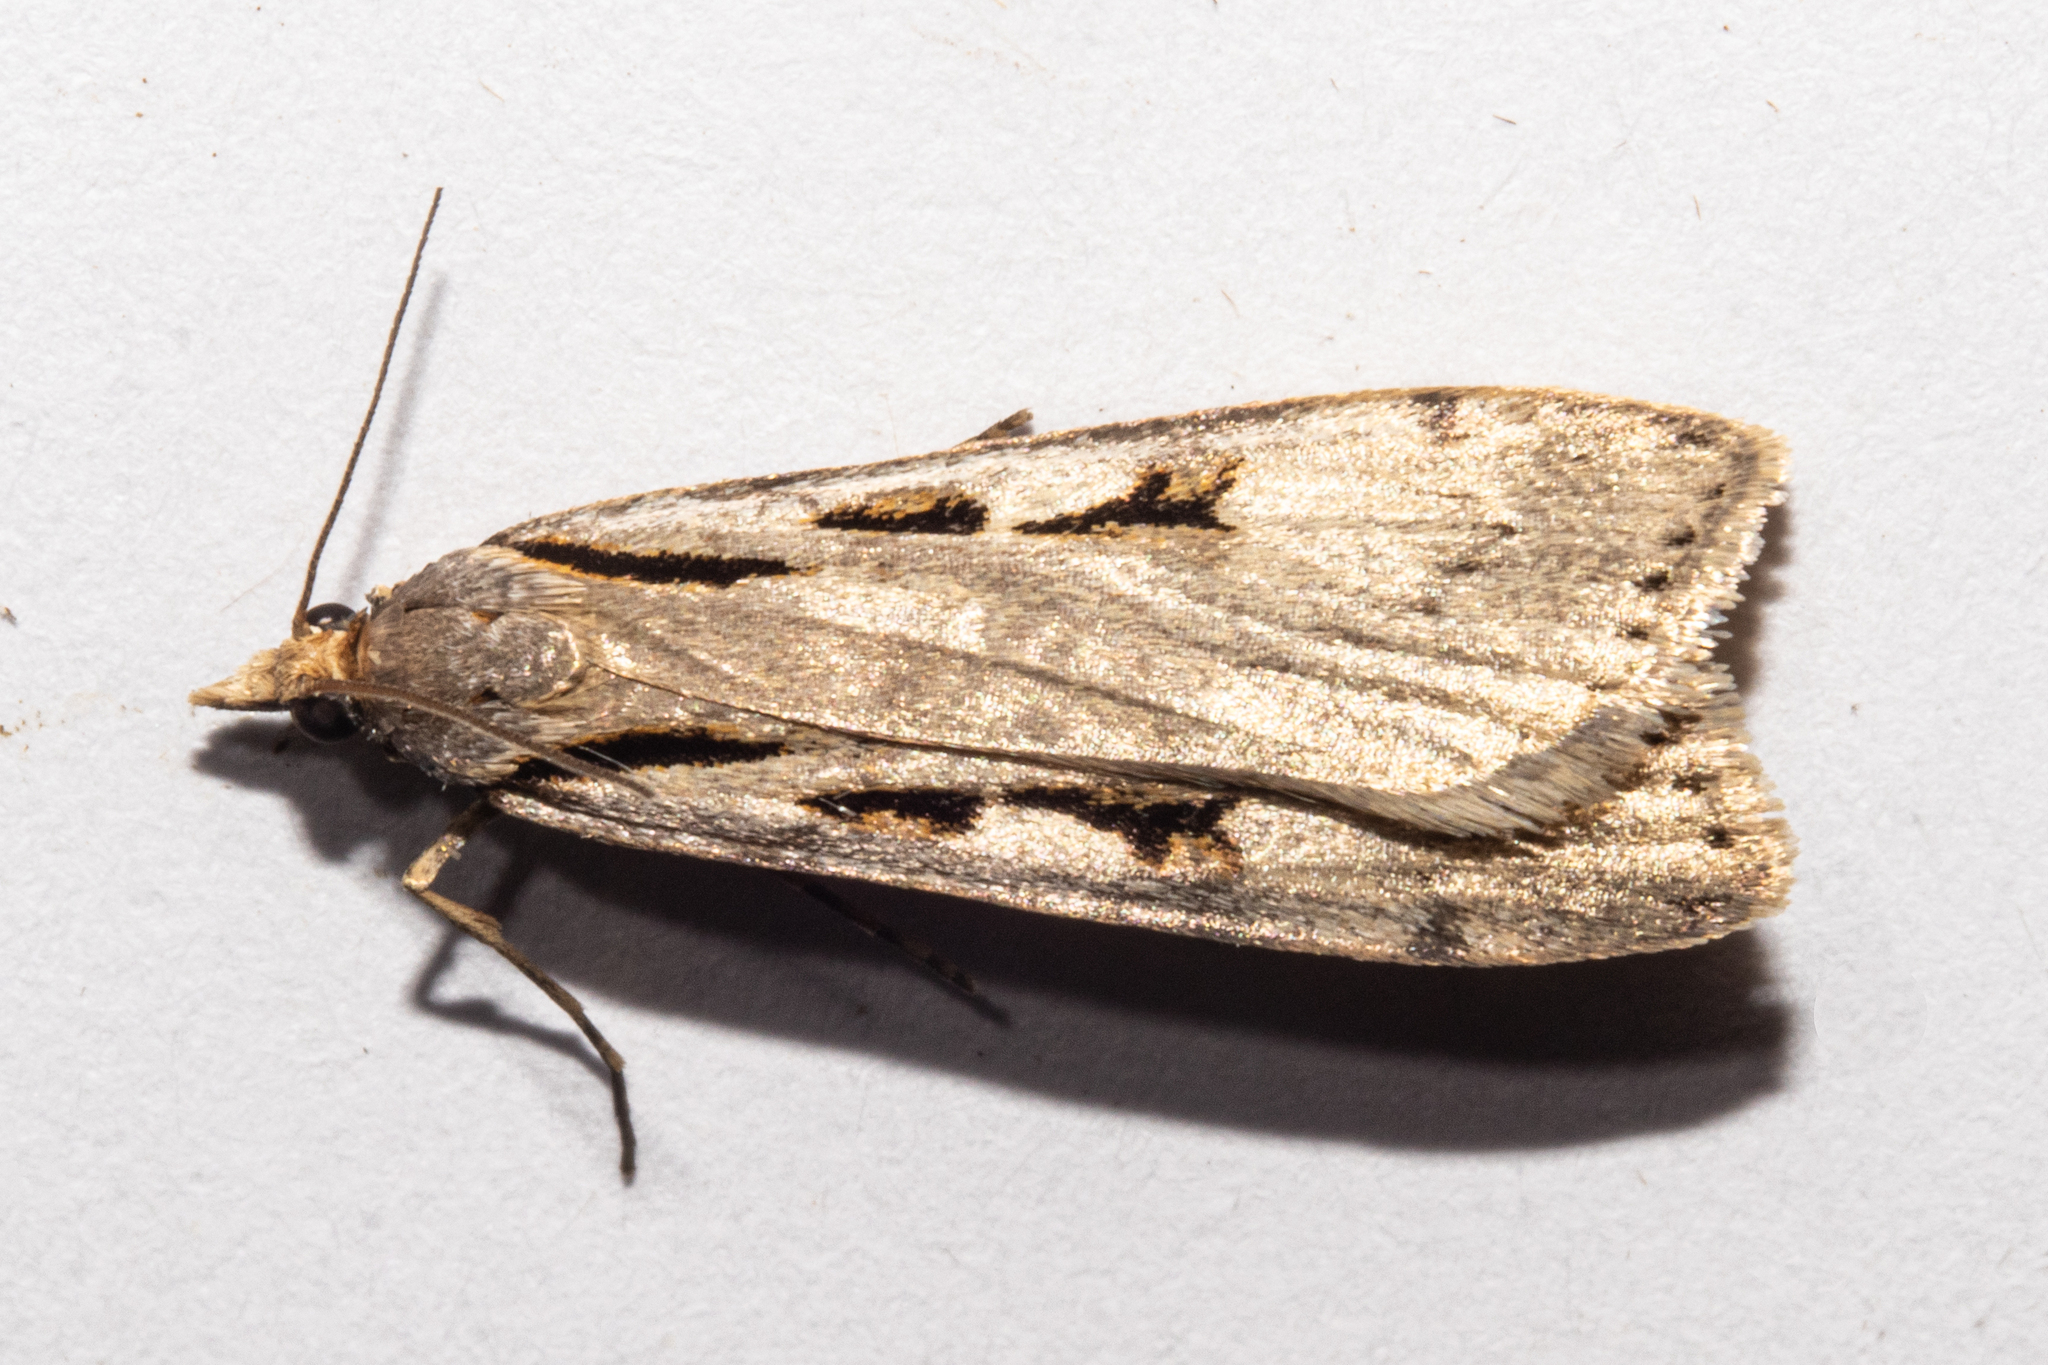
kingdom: Animalia
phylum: Arthropoda
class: Insecta
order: Lepidoptera
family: Crambidae
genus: Scoparia
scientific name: Scoparia scripta
